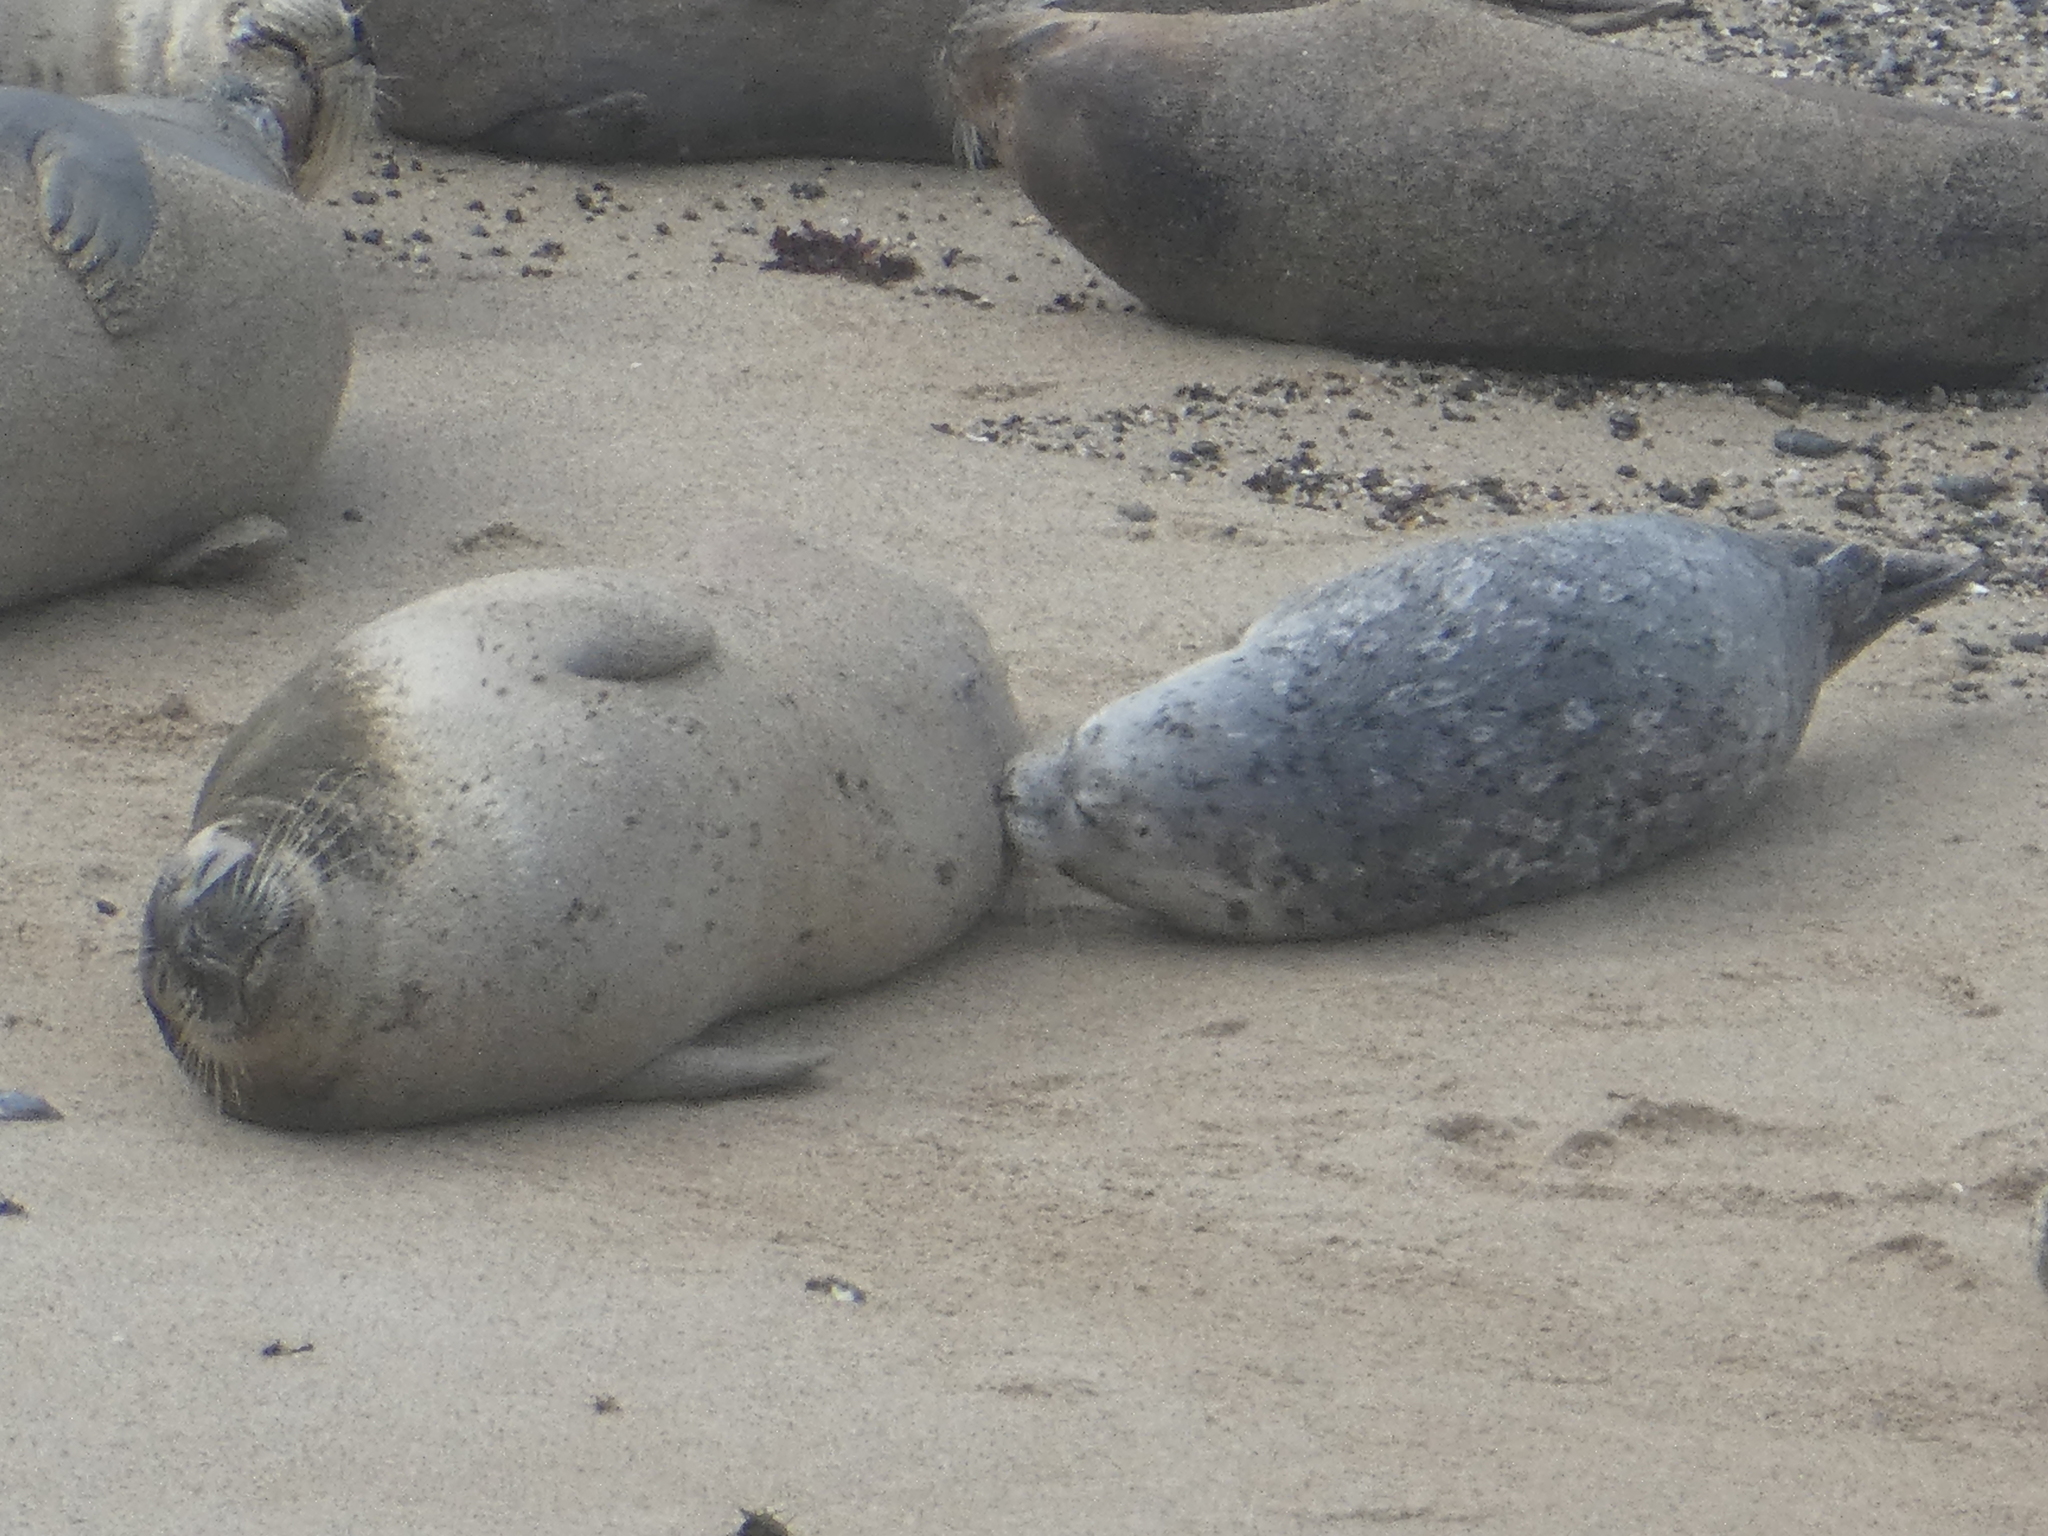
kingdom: Animalia
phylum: Chordata
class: Mammalia
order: Carnivora
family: Phocidae
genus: Phoca
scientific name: Phoca vitulina
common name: Harbor seal
